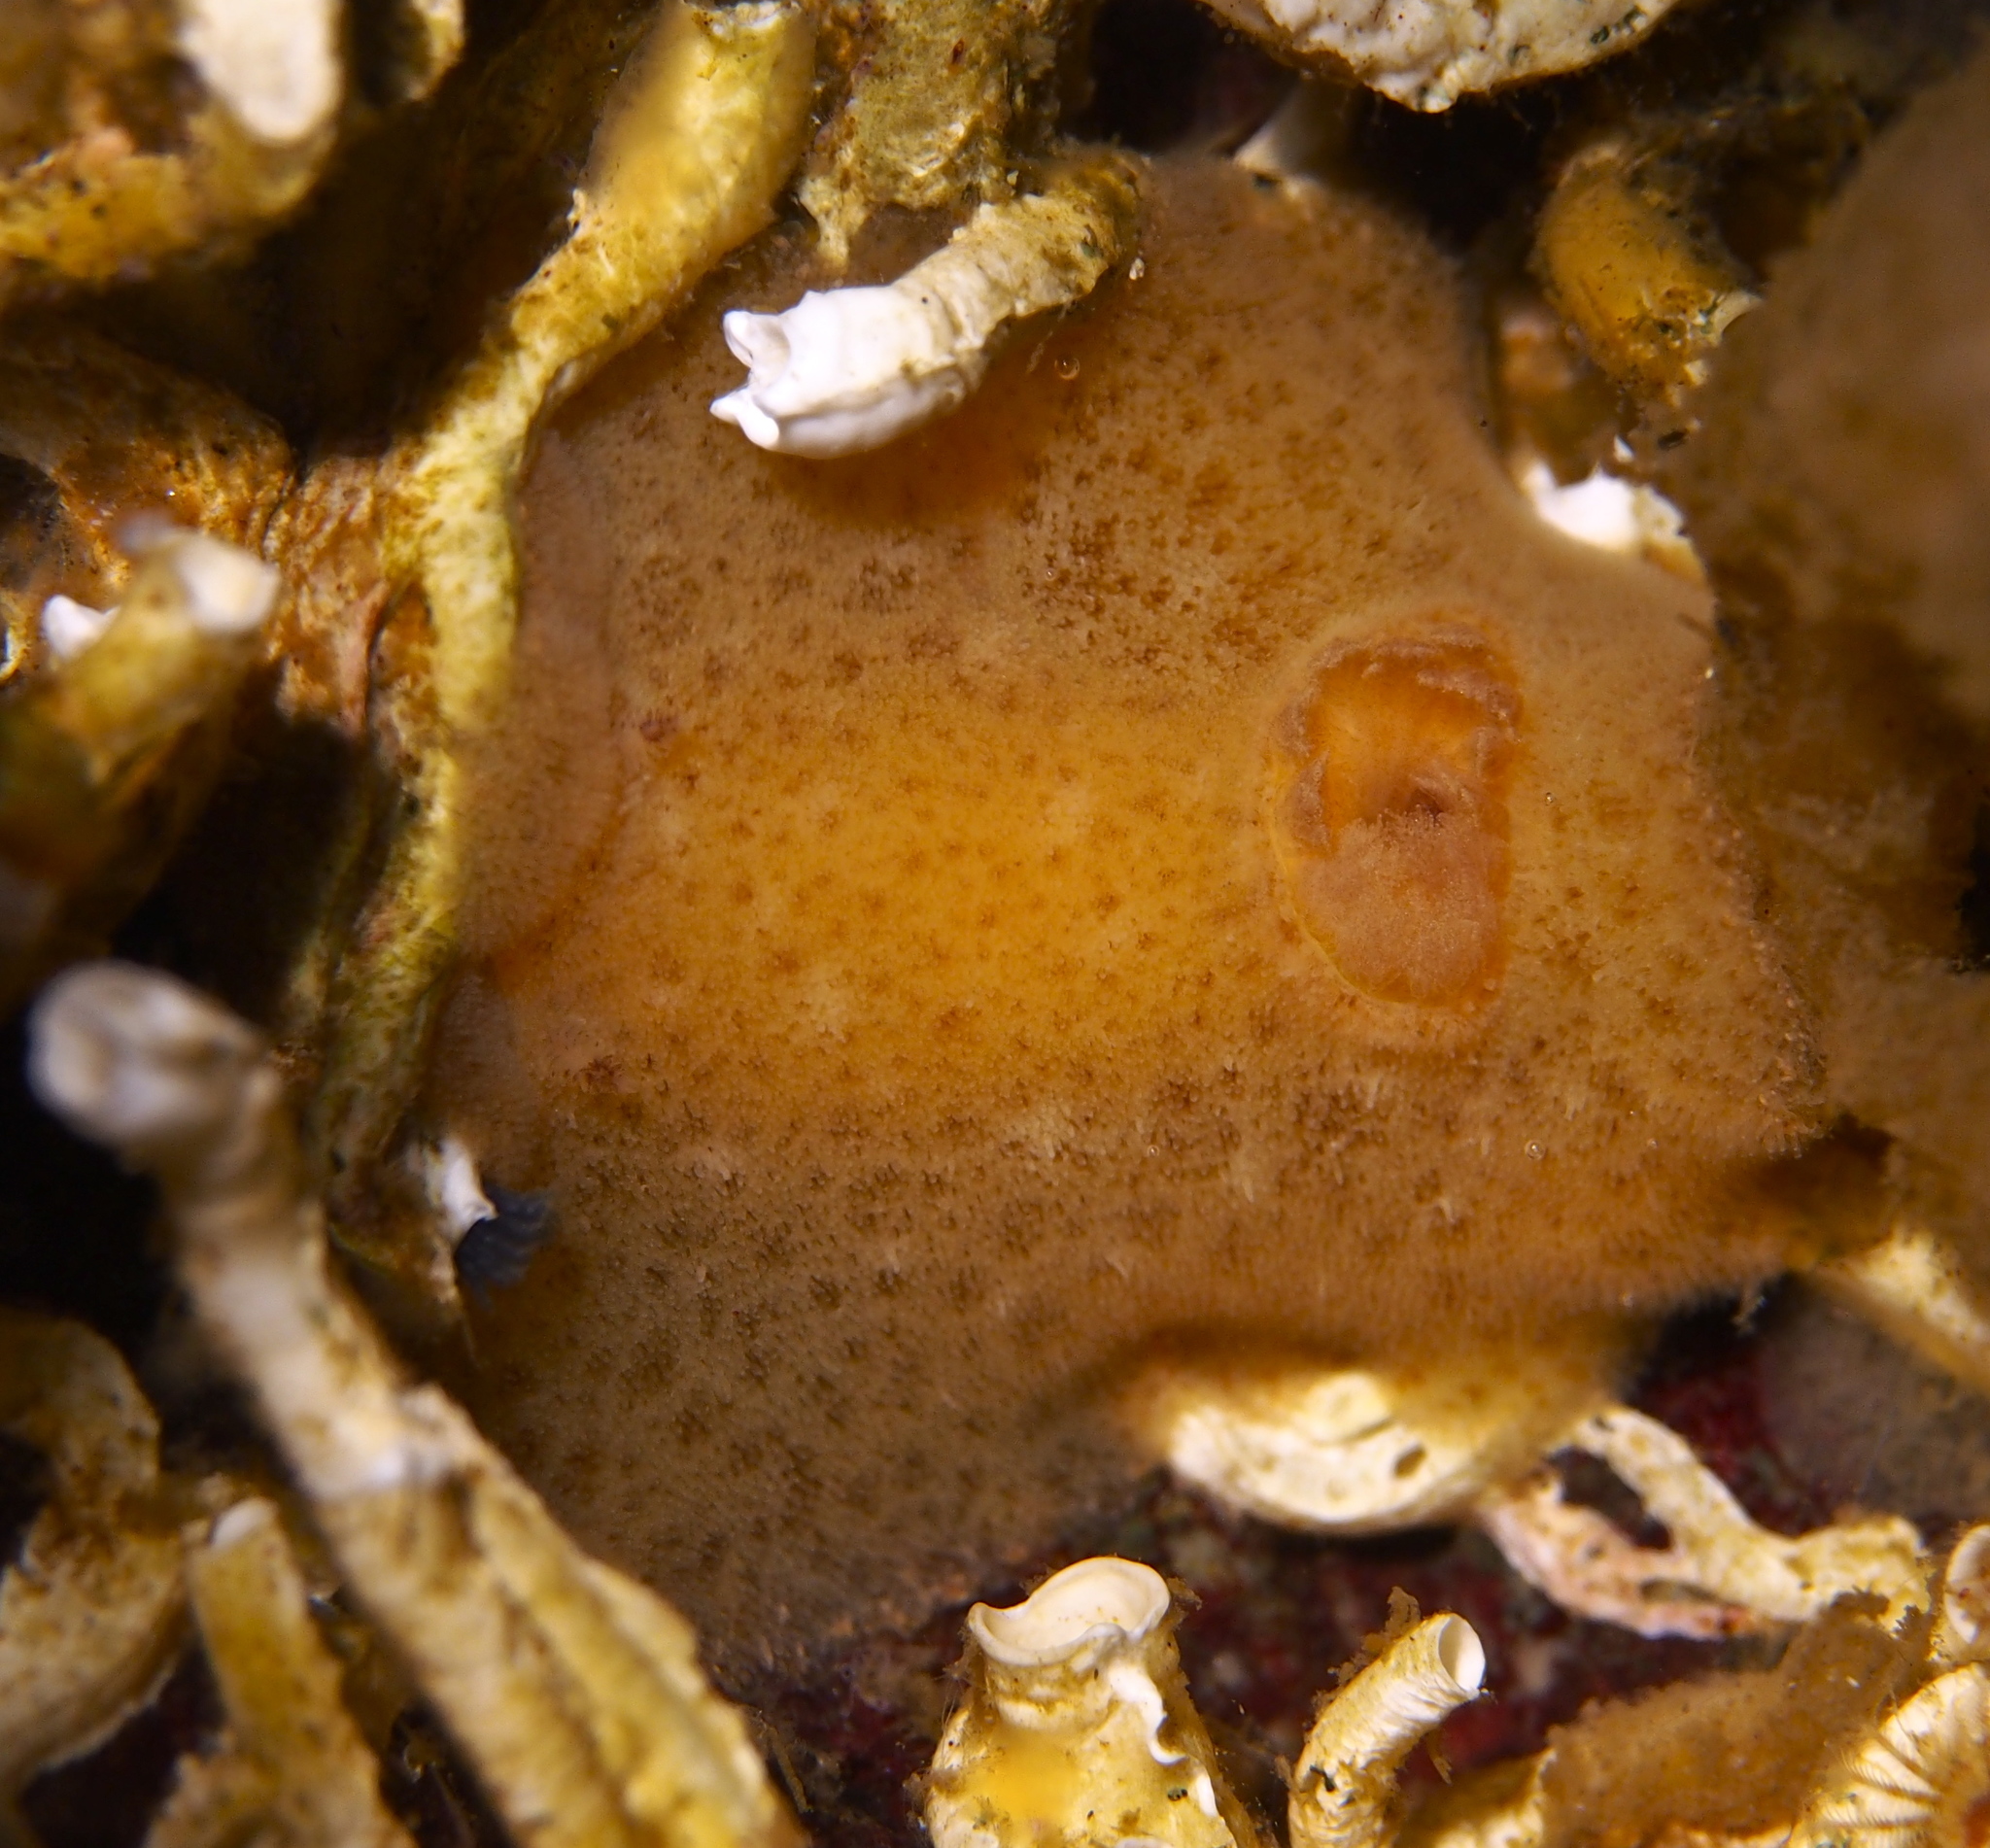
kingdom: Animalia
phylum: Mollusca
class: Gastropoda
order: Nudibranchia
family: Discodorididae
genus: Jorunna
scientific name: Jorunna tomentosa
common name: Grey sea slug
